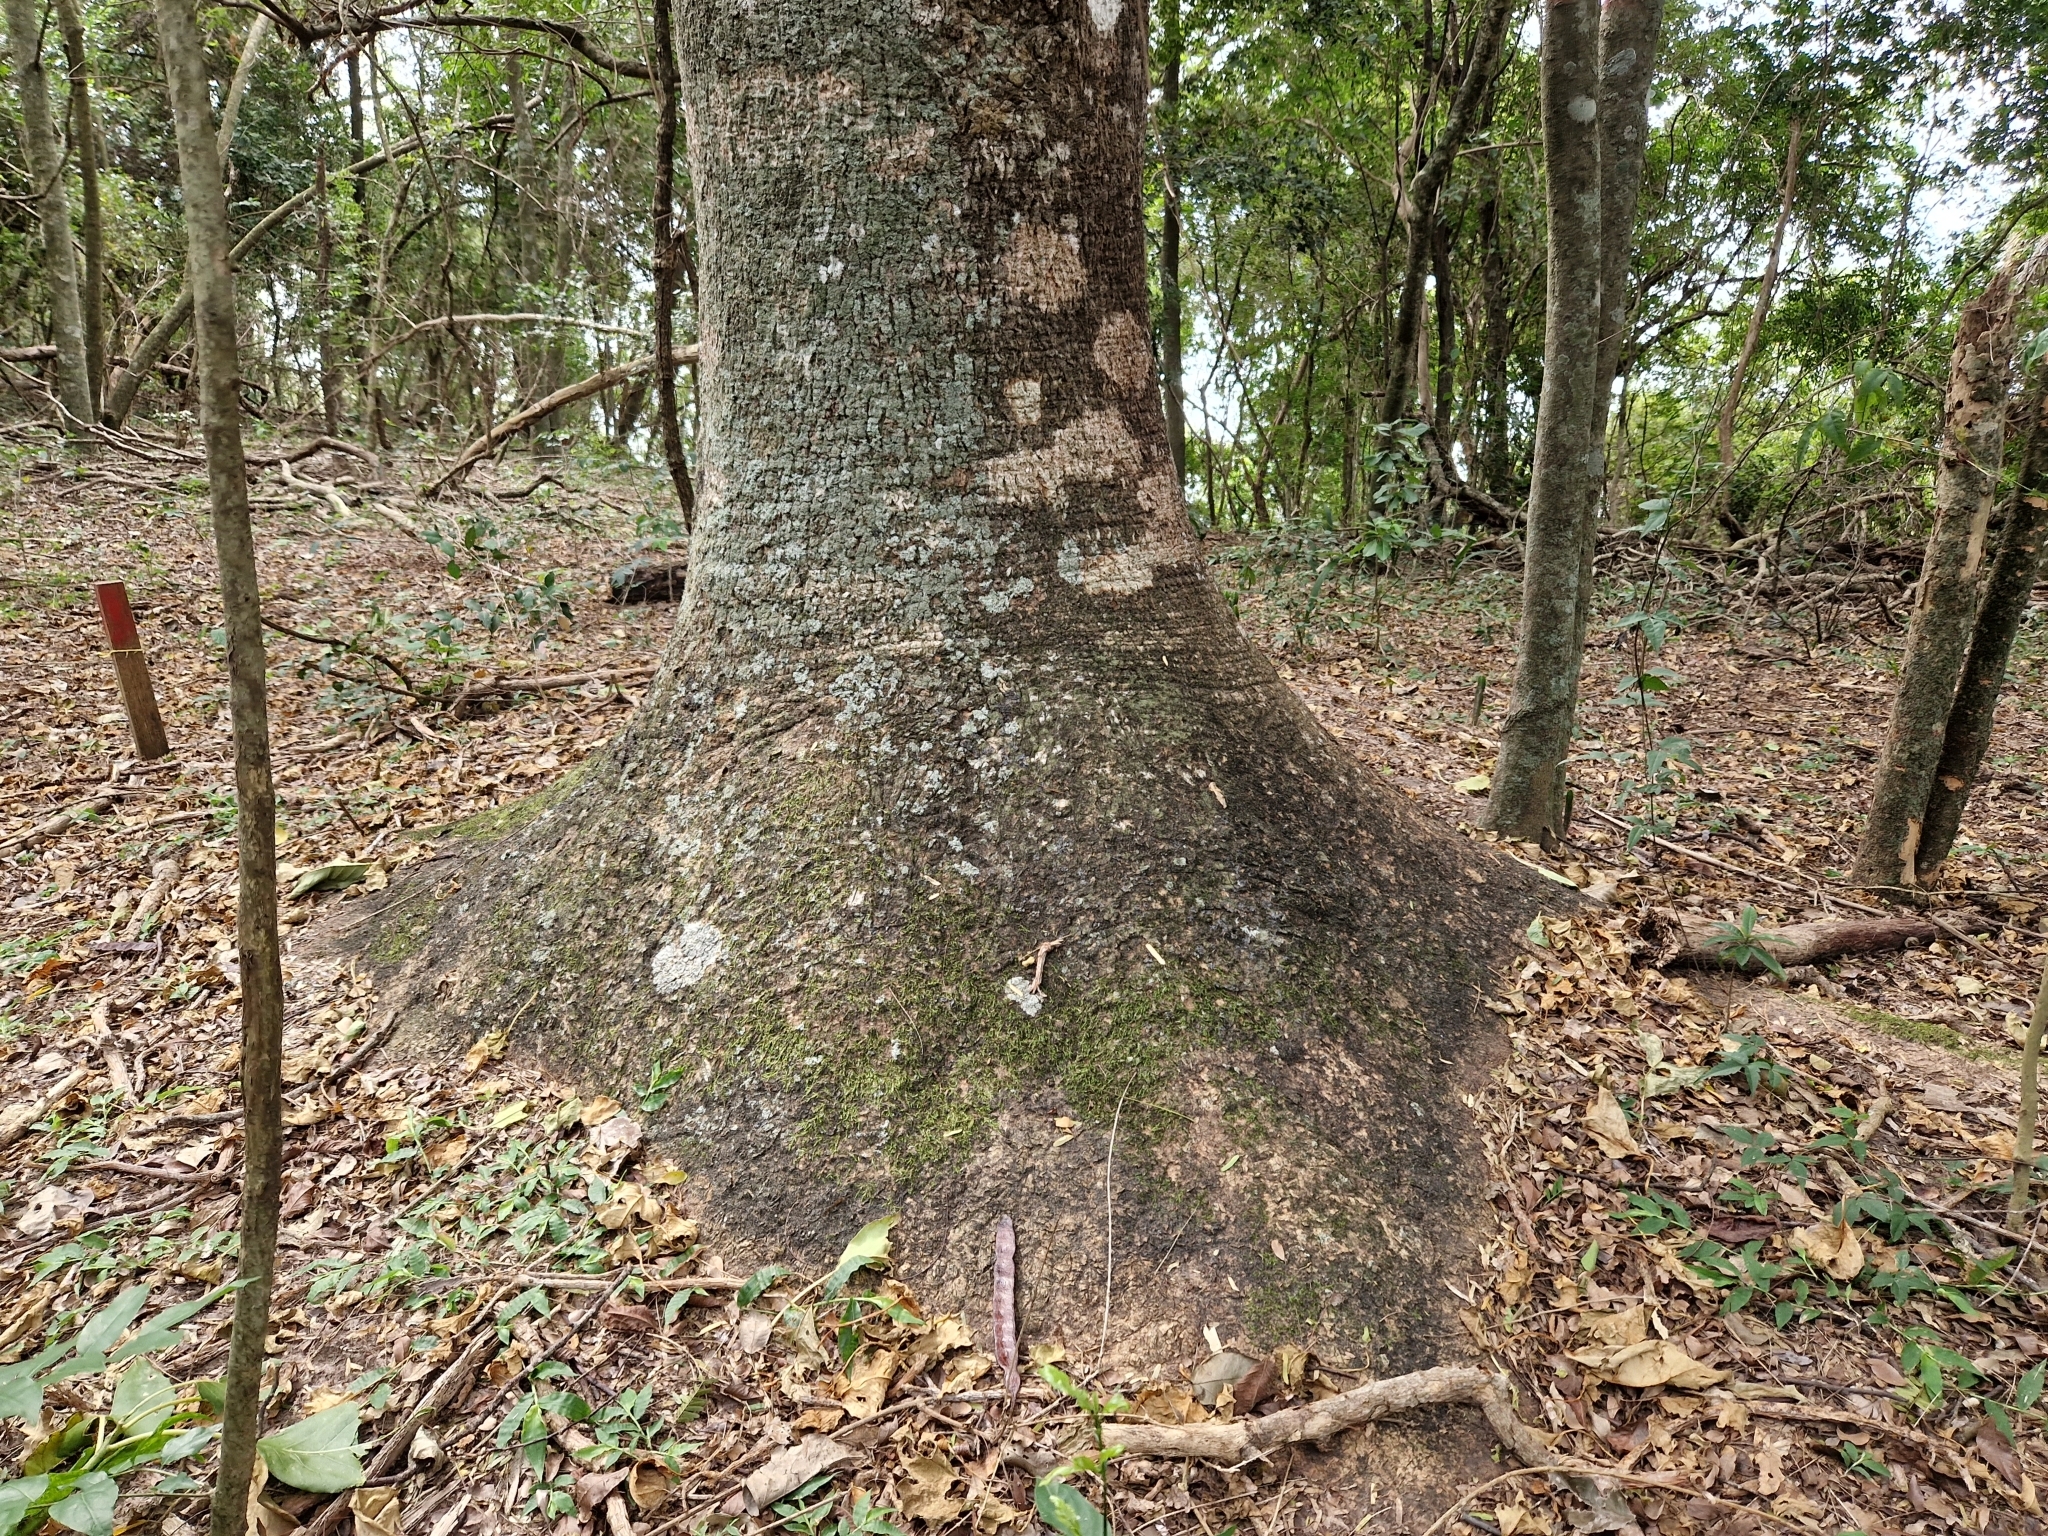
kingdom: Plantae
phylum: Tracheophyta
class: Magnoliopsida
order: Caryophyllales
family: Phytolaccaceae
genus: Phytolacca
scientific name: Phytolacca dioica
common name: Pokeweed
